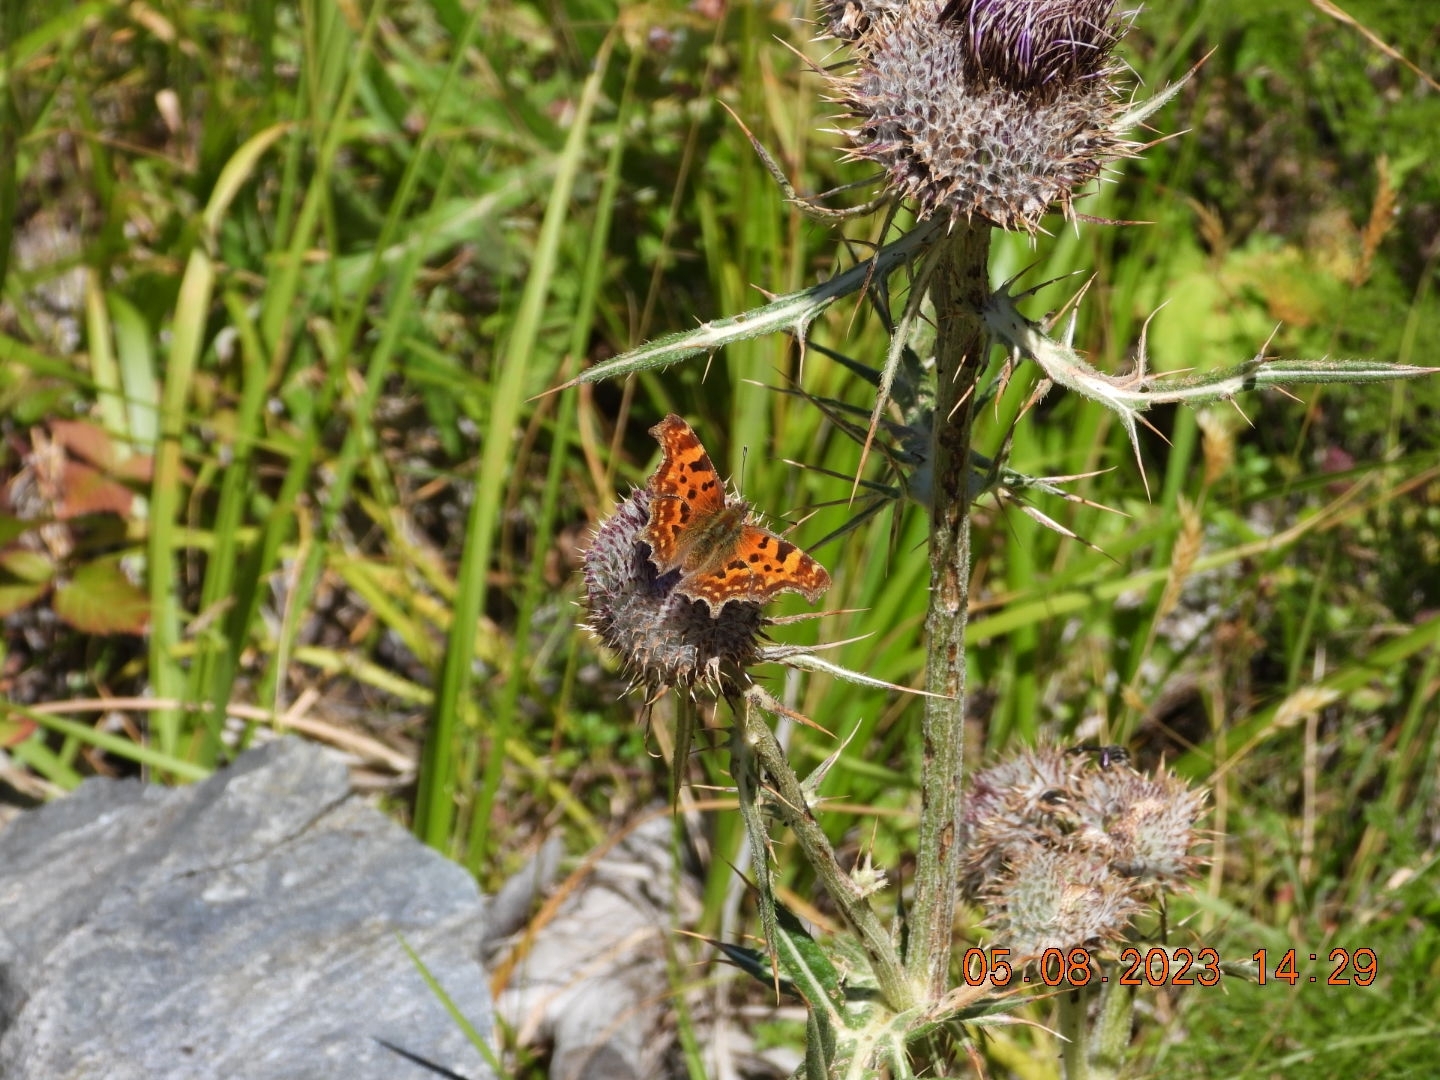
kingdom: Animalia
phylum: Arthropoda
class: Insecta
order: Lepidoptera
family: Nymphalidae
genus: Polygonia
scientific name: Polygonia c-album
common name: Comma
